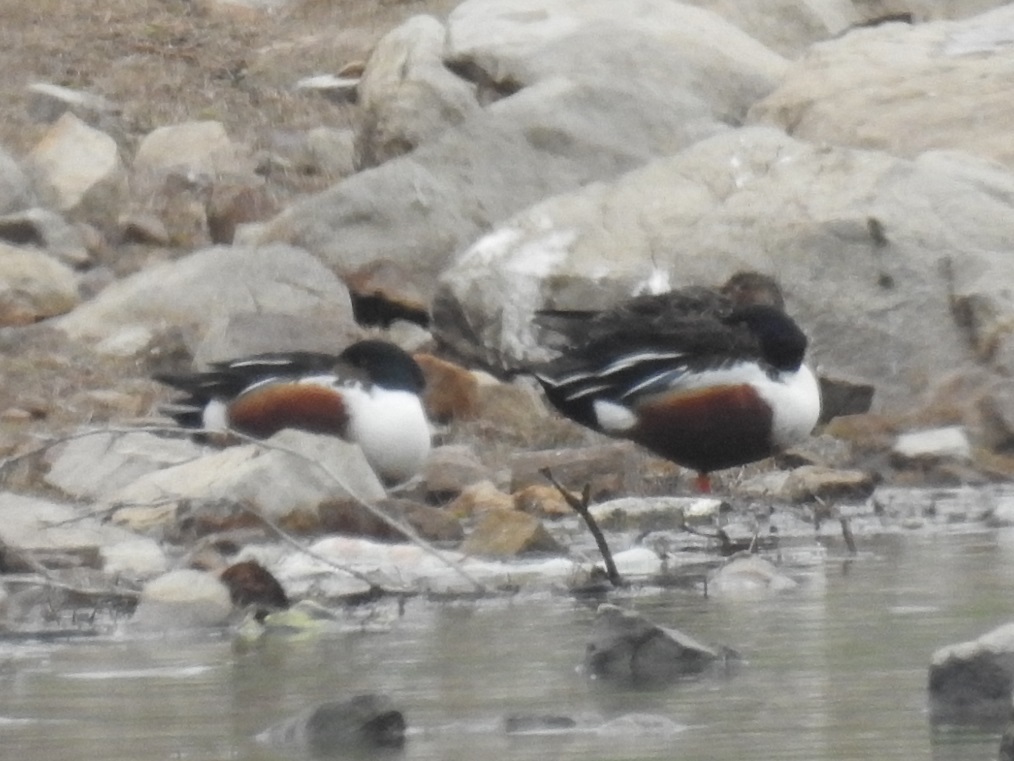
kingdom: Animalia
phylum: Chordata
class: Aves
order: Anseriformes
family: Anatidae
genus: Spatula
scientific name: Spatula clypeata
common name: Northern shoveler
